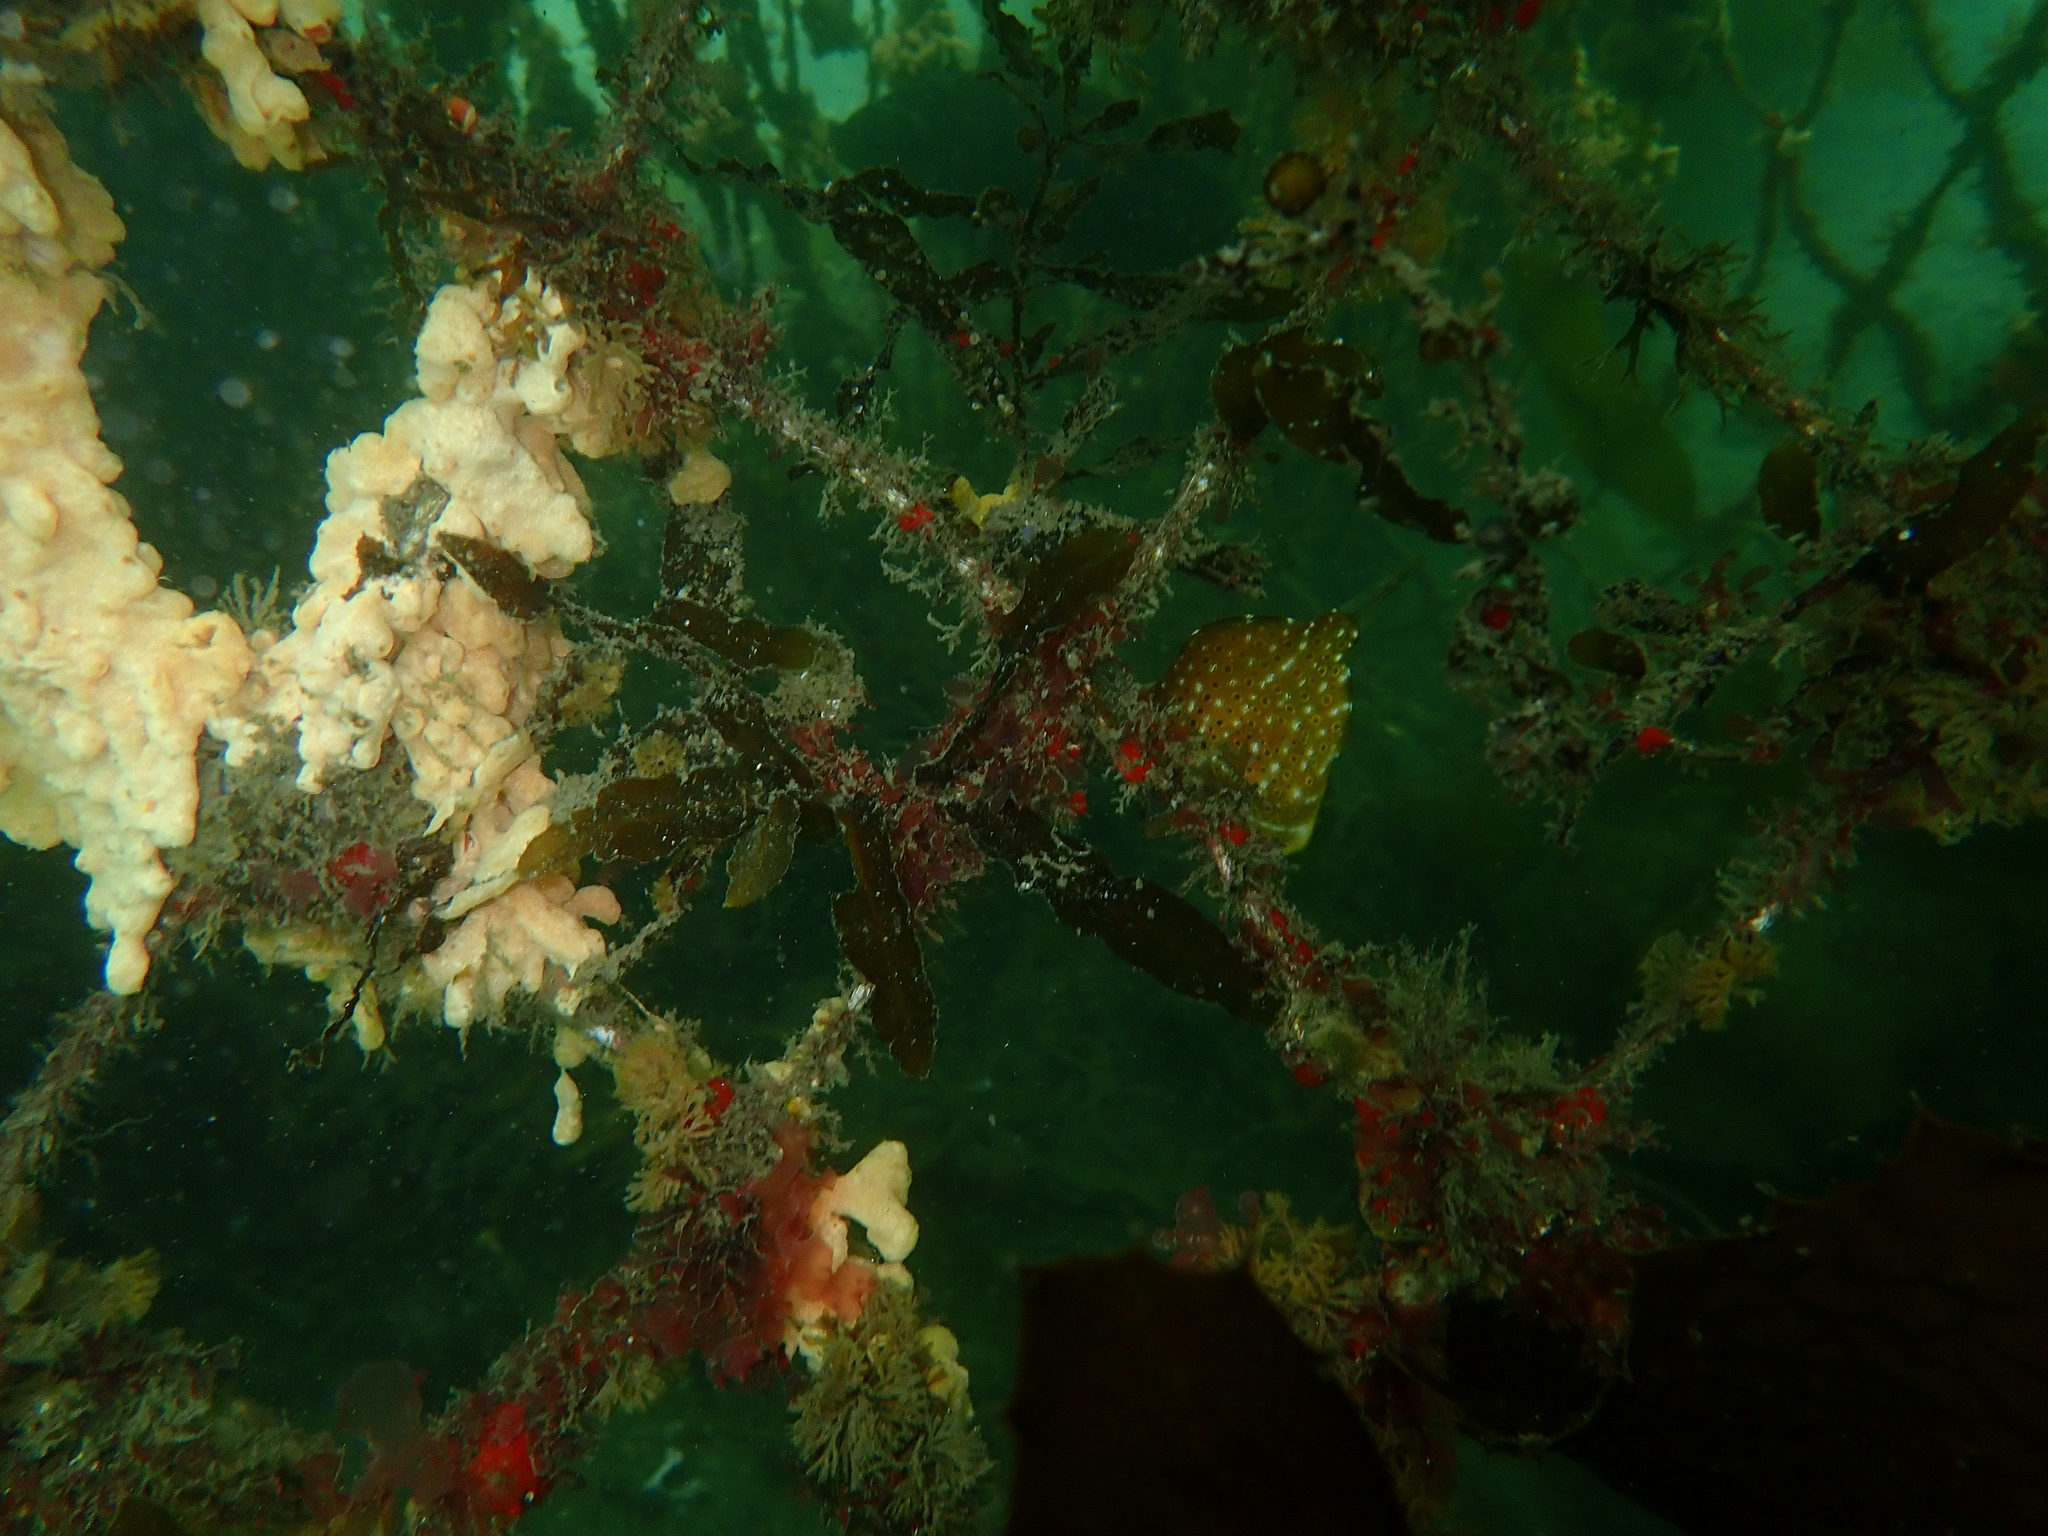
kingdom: Animalia
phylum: Chordata
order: Tetraodontiformes
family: Monacanthidae
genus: Brachaluteres
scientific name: Brachaluteres jacksonianus
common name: Pigmy leatherjacket
